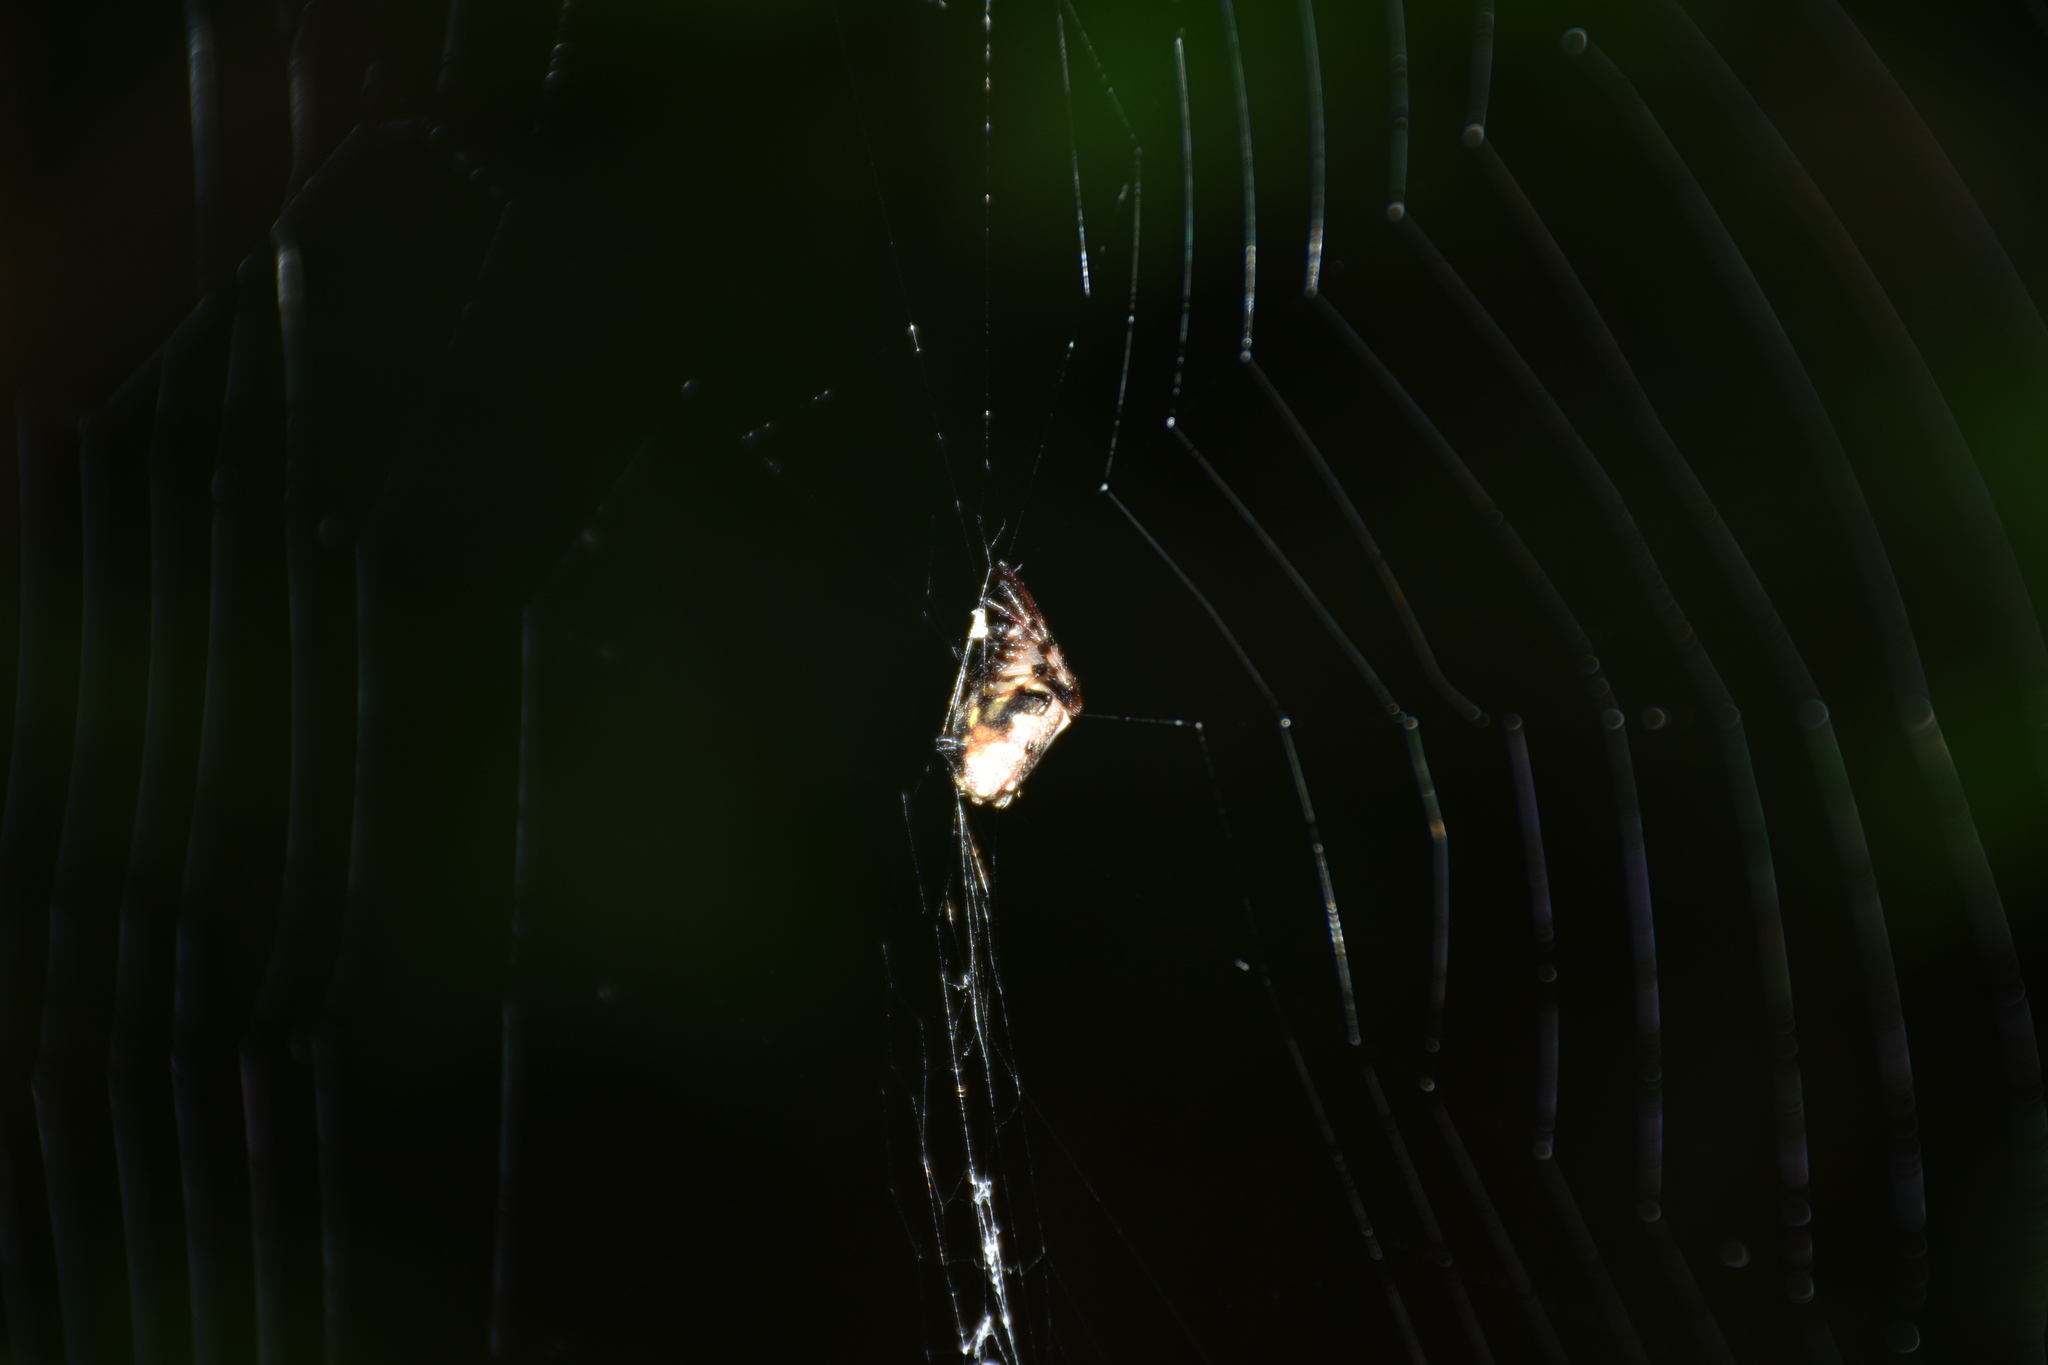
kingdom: Animalia
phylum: Arthropoda
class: Arachnida
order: Araneae
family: Araneidae
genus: Verrucosa
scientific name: Verrucosa arenata
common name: Orb weavers
